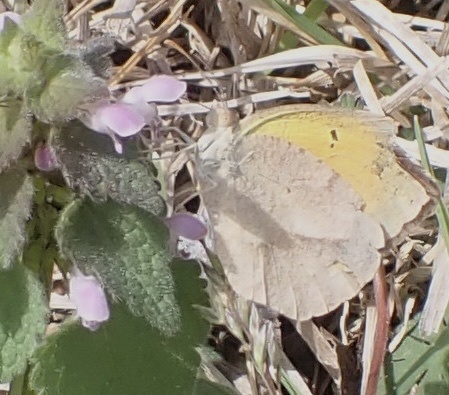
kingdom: Animalia
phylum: Arthropoda
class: Insecta
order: Lepidoptera
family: Pieridae
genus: Abaeis
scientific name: Abaeis nicippe
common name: Sleepy orange
